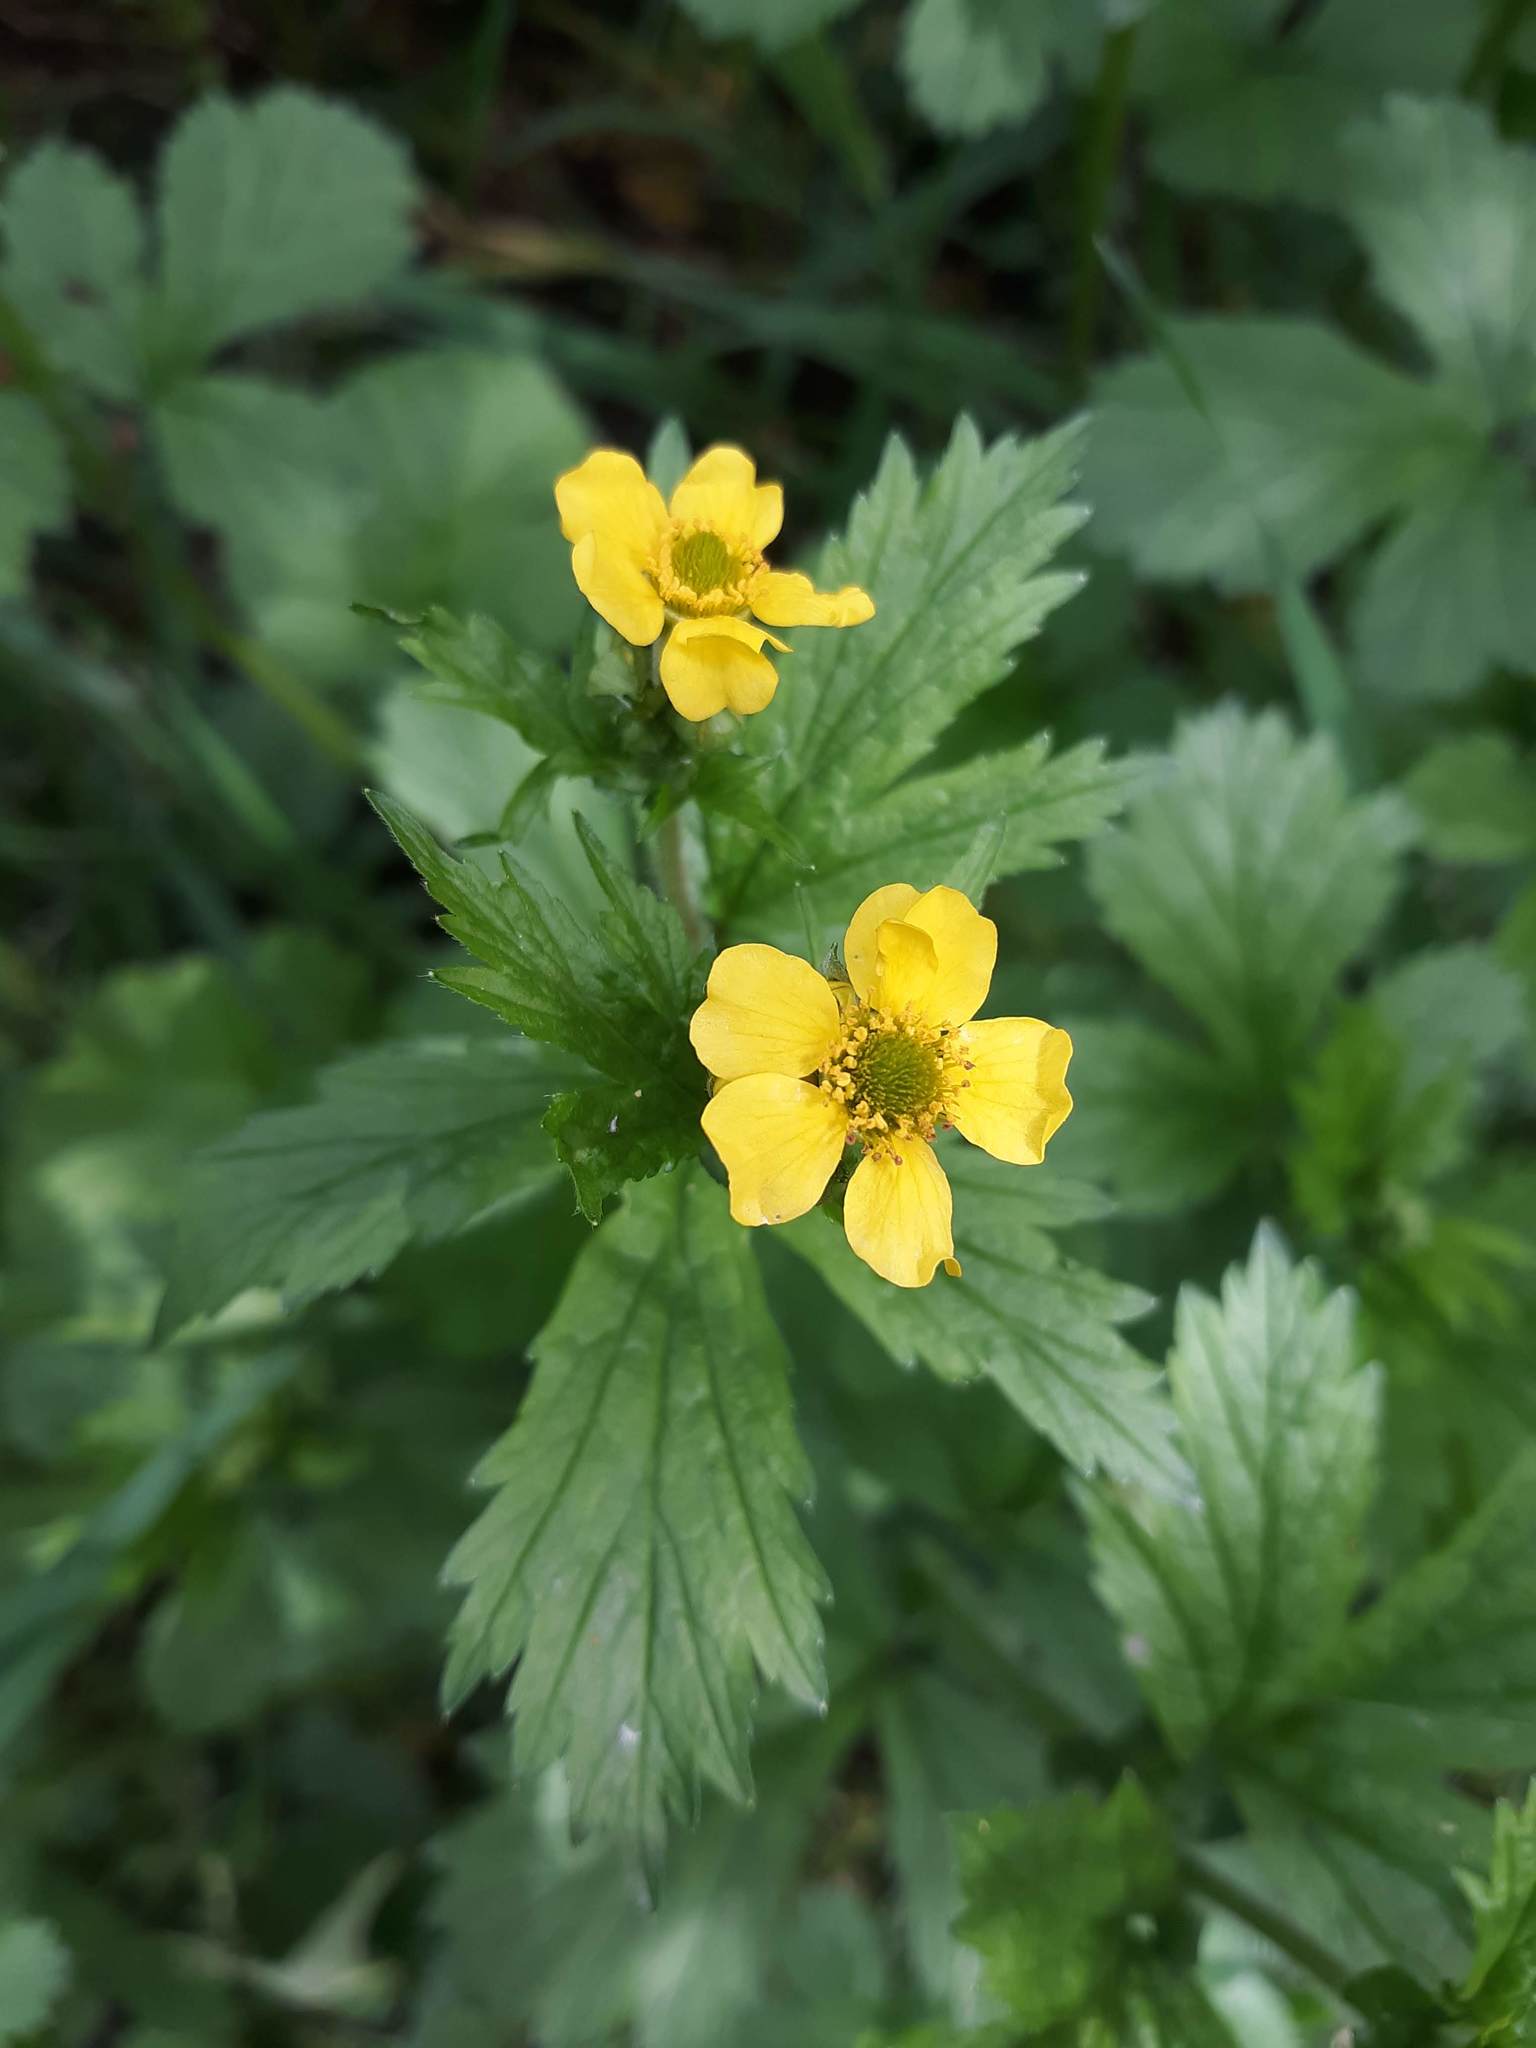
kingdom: Plantae
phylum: Tracheophyta
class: Magnoliopsida
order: Rosales
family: Rosaceae
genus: Geum
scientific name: Geum macrophyllum
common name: Large-leaved avens
